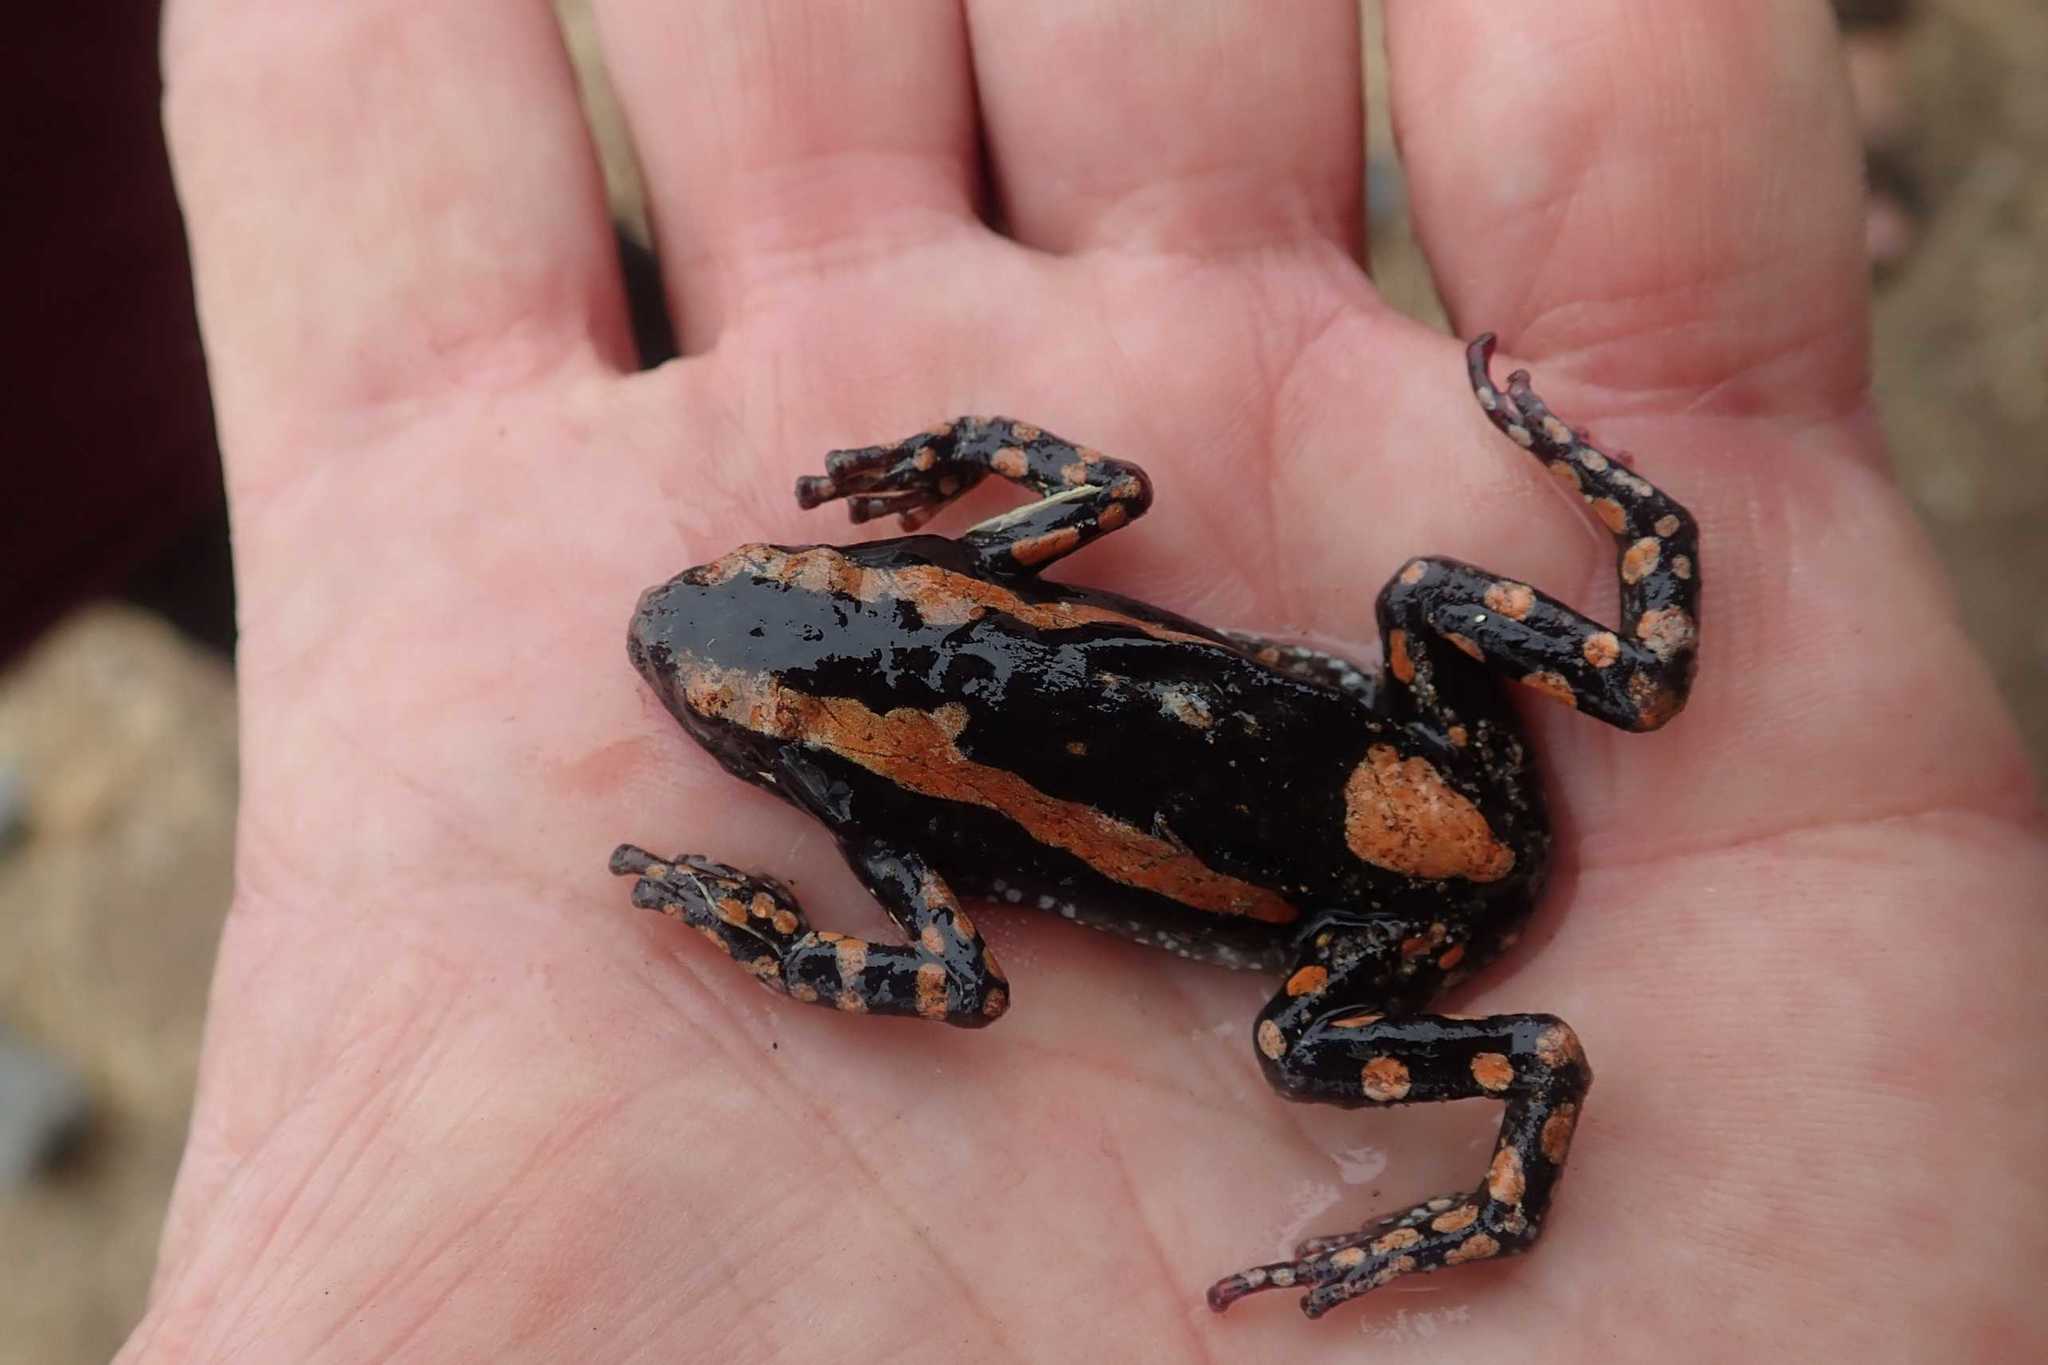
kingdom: Animalia
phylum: Chordata
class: Amphibia
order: Anura
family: Microhylidae
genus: Phrynomantis
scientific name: Phrynomantis bifasciatus
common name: Banded rubber frog
